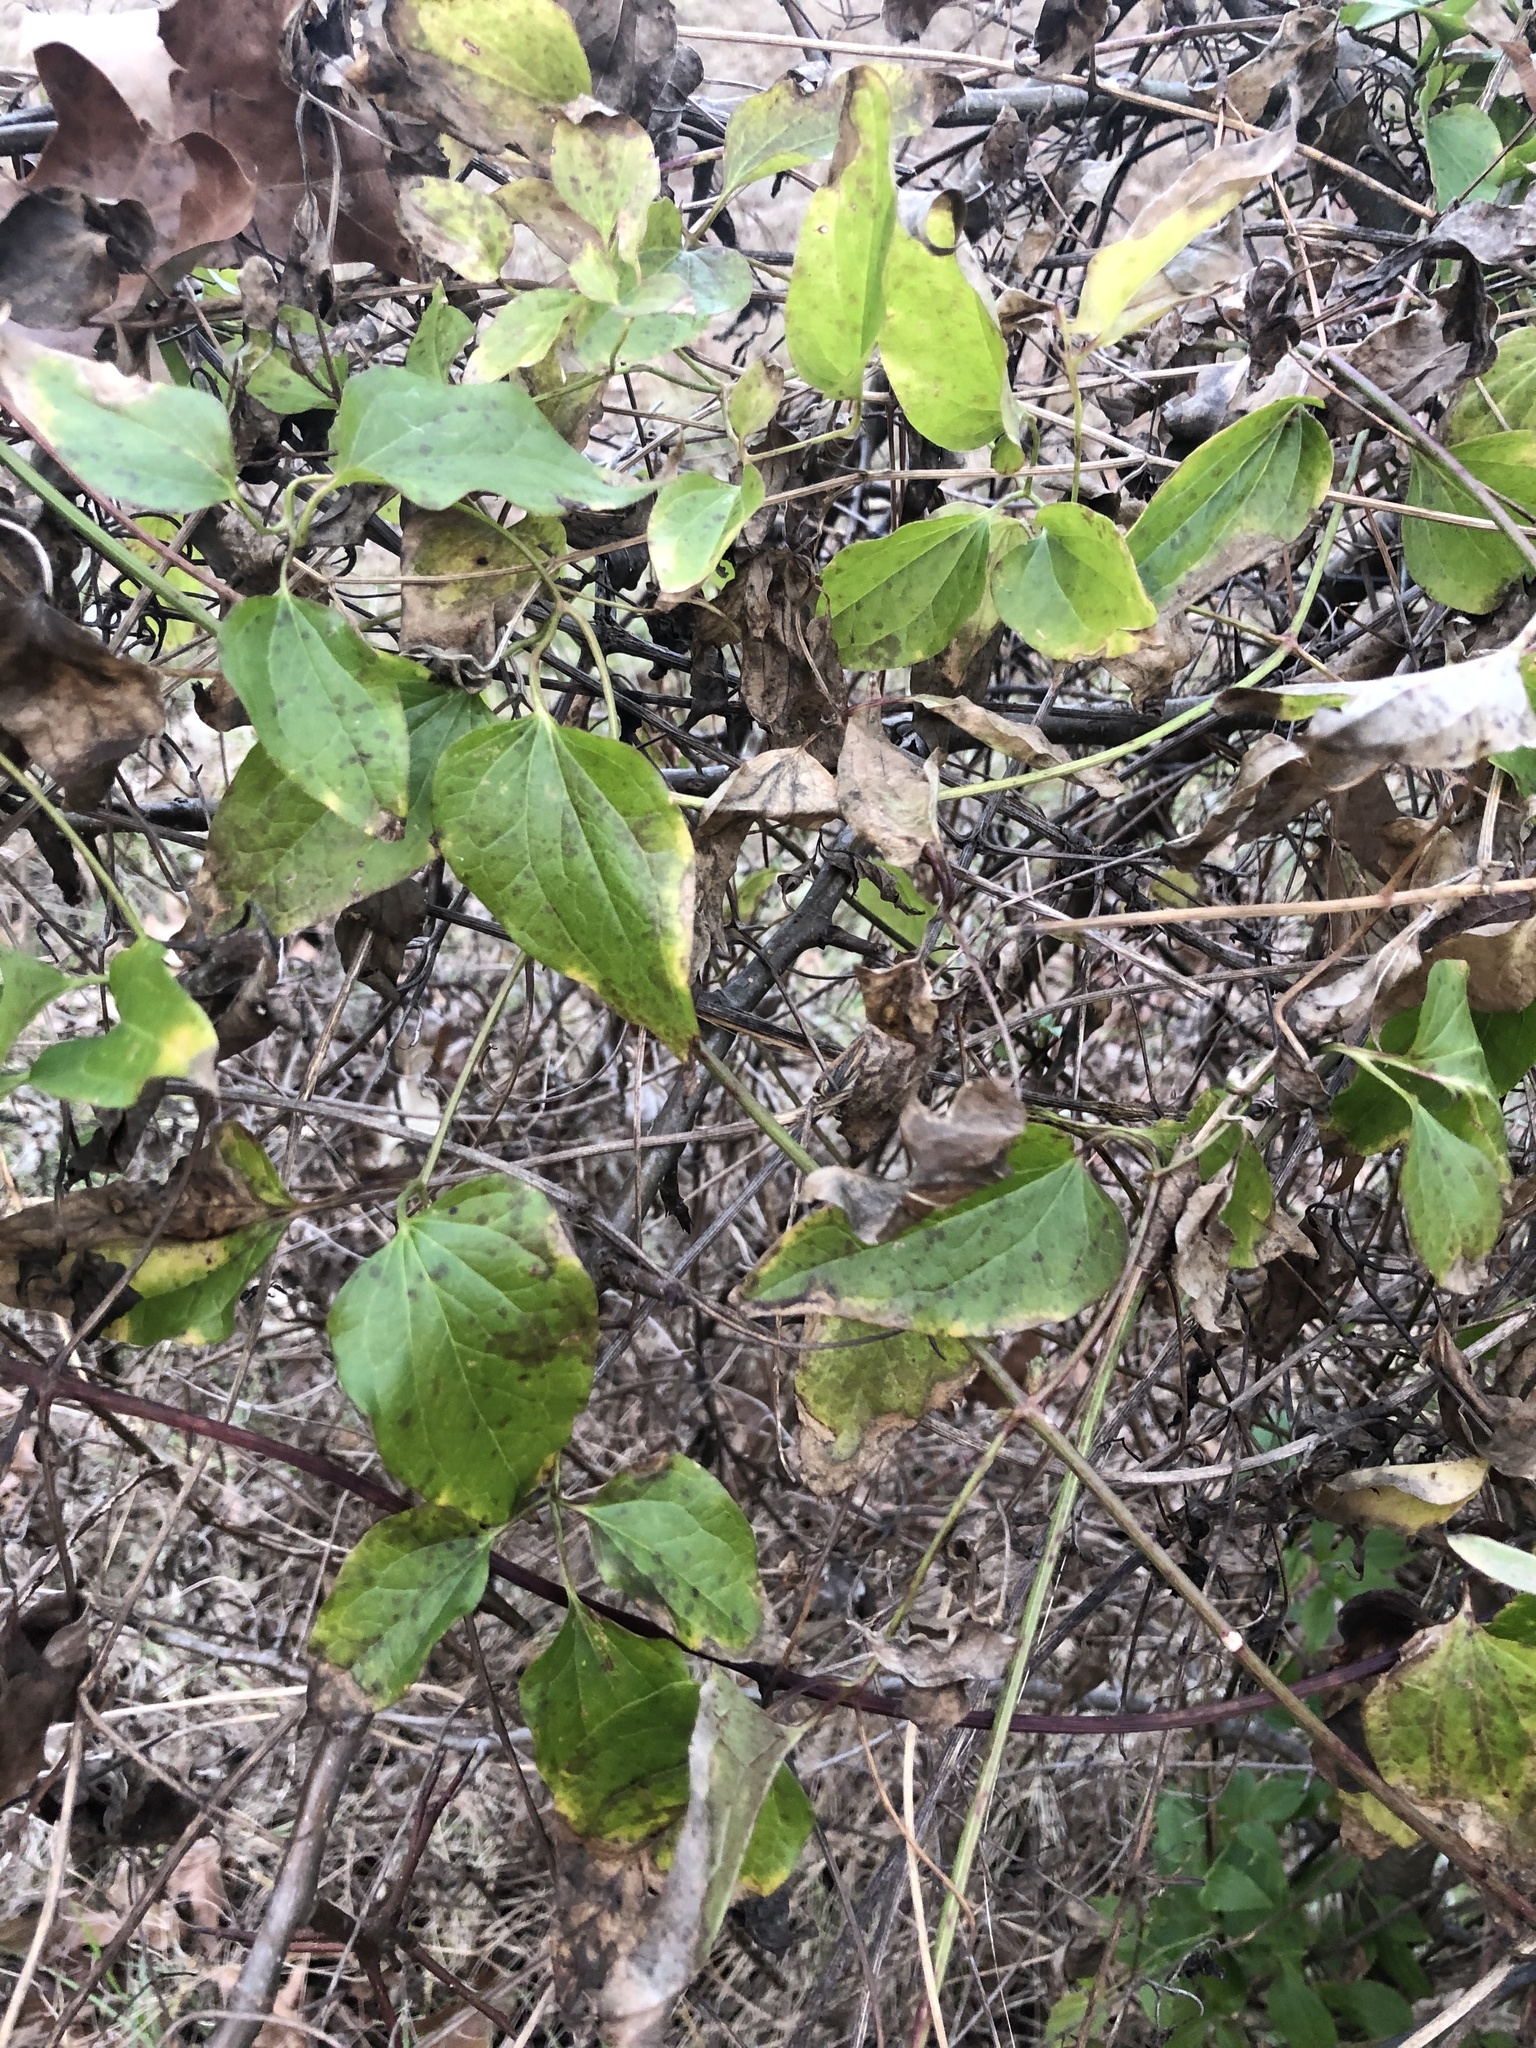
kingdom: Plantae
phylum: Tracheophyta
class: Magnoliopsida
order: Ranunculales
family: Ranunculaceae
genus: Clematis
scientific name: Clematis terniflora
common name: Sweet autumn clematis
